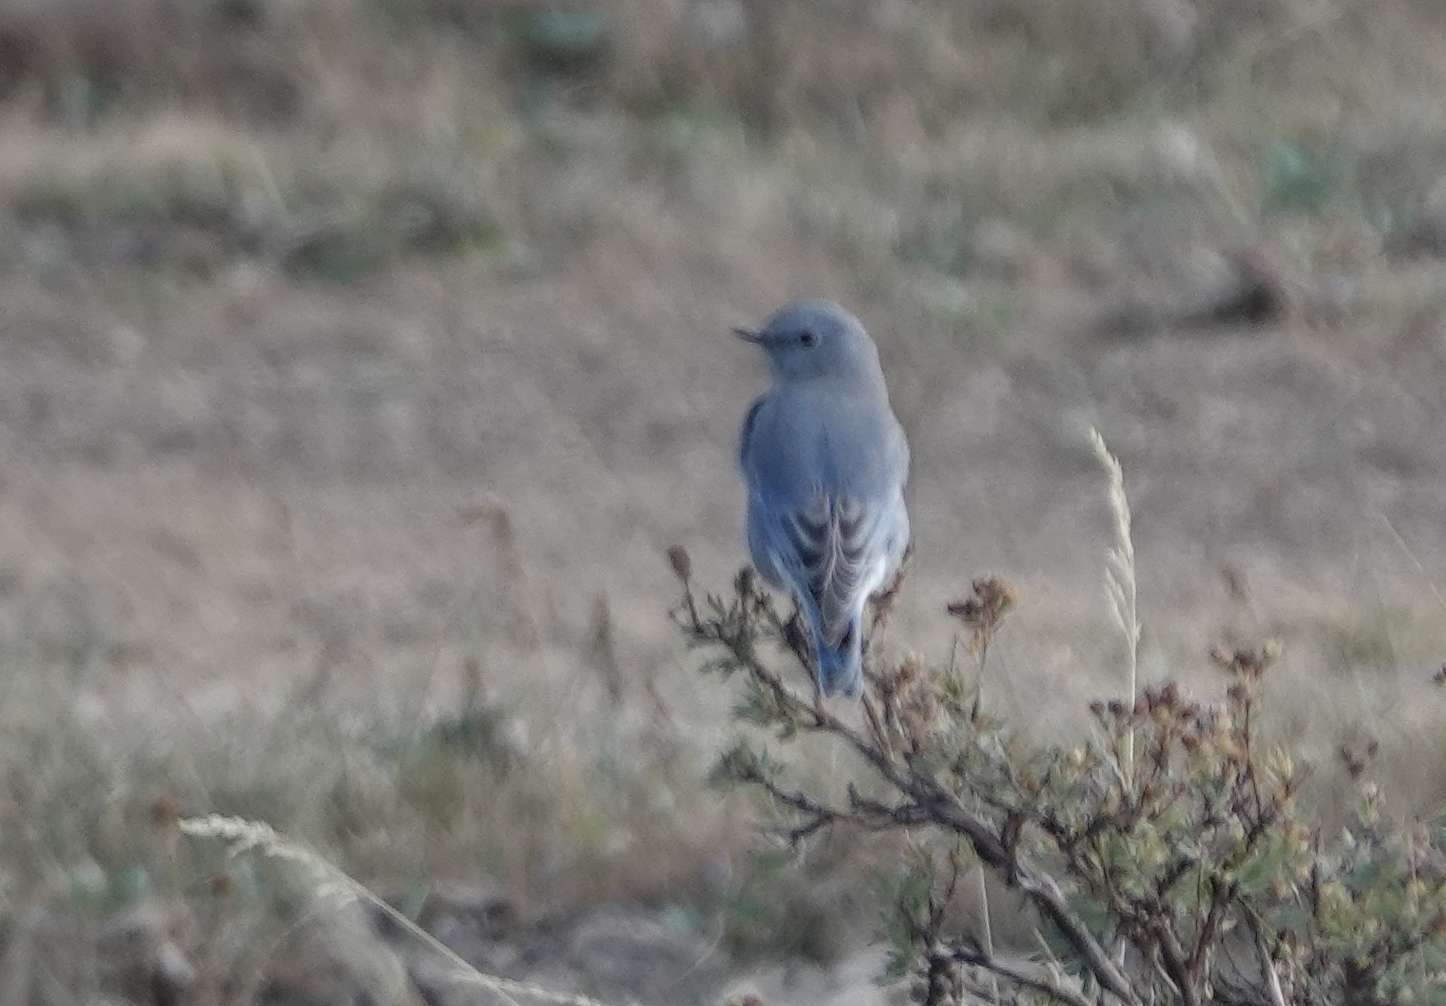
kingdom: Animalia
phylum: Chordata
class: Aves
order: Passeriformes
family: Turdidae
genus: Sialia
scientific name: Sialia currucoides
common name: Mountain bluebird
